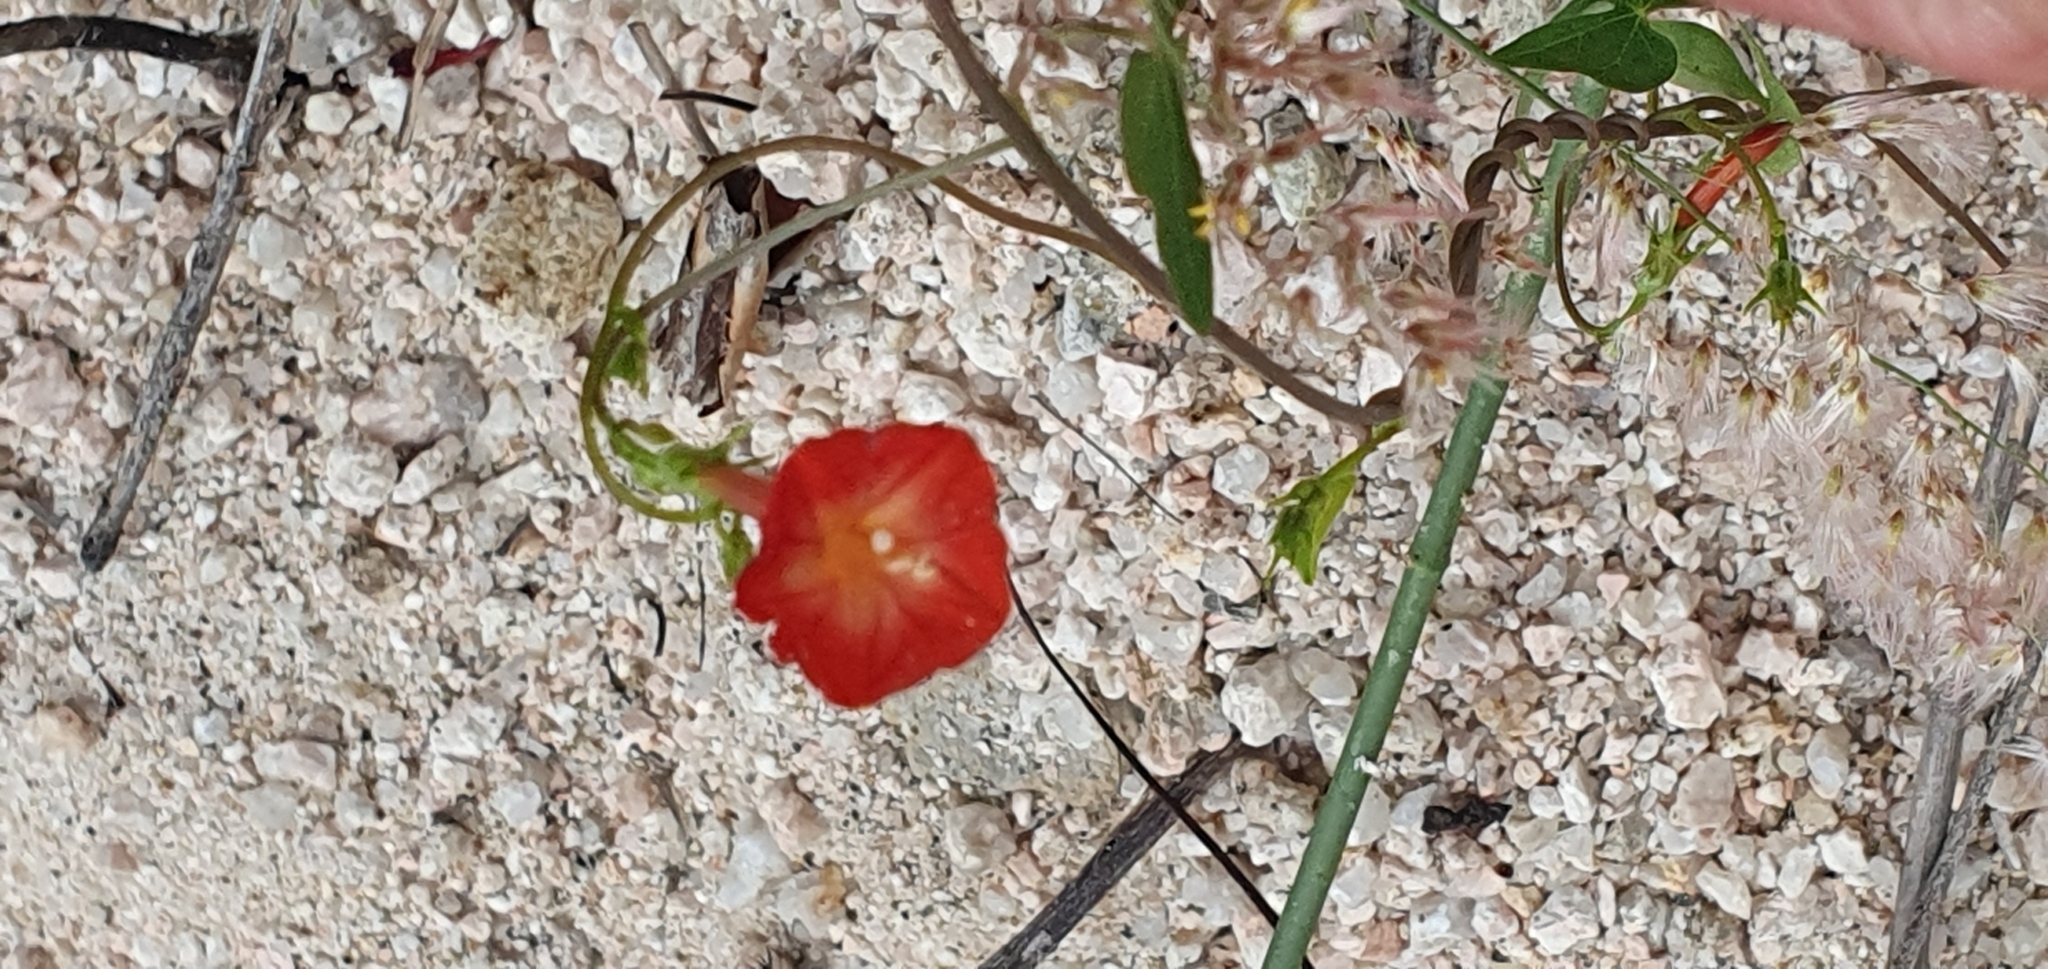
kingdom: Plantae
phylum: Tracheophyta
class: Magnoliopsida
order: Solanales
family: Convolvulaceae
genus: Ipomoea
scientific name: Ipomoea cristulata
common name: Trans-pecos morning-glory
